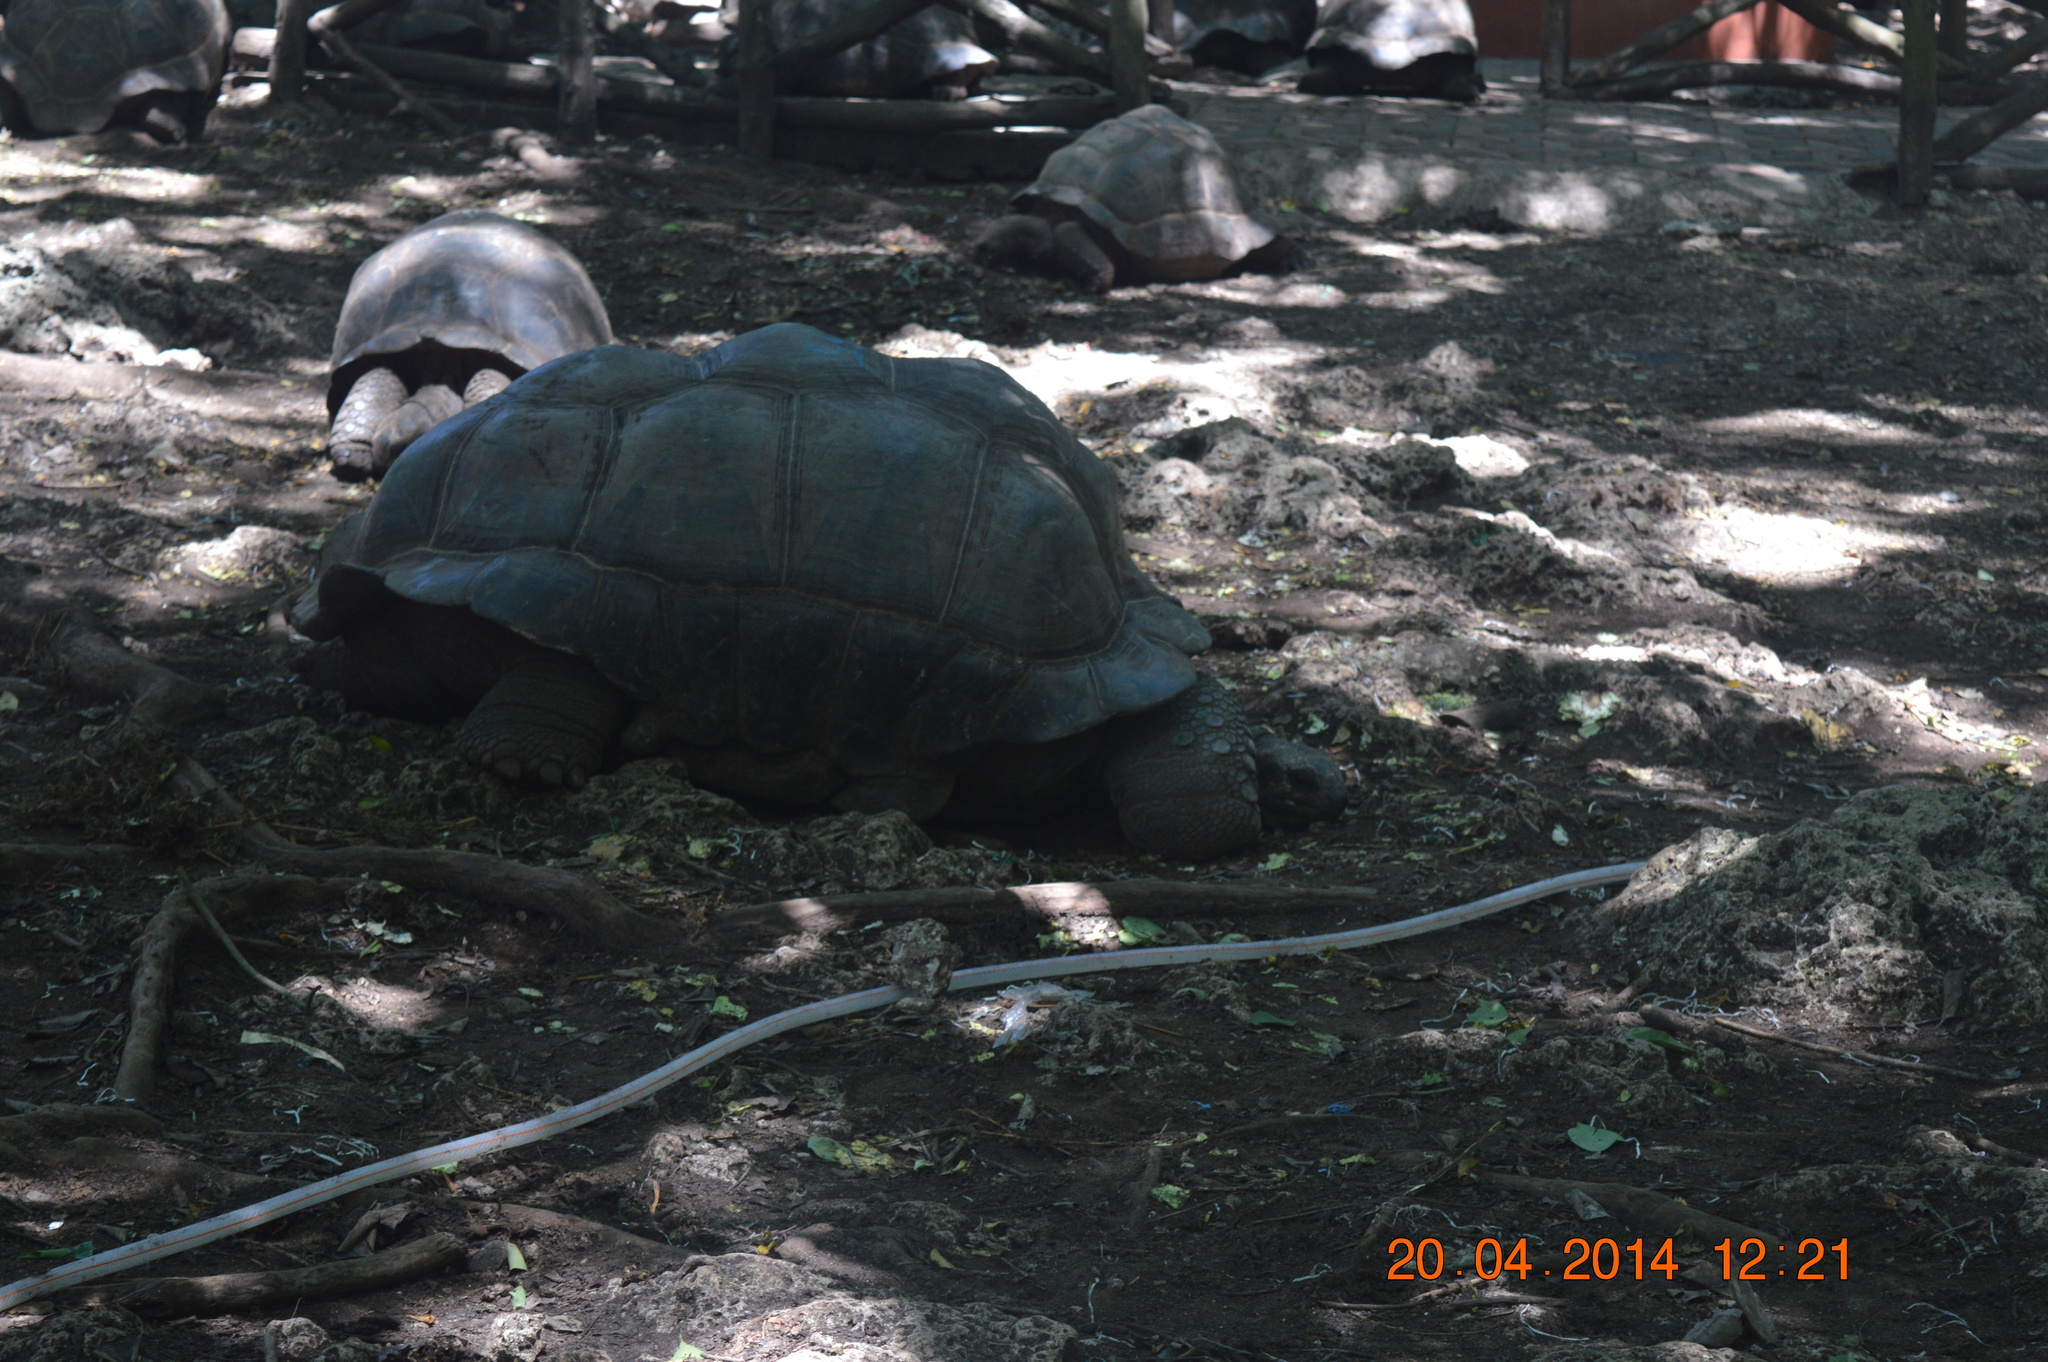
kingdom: Animalia
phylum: Chordata
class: Testudines
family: Testudinidae
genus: Aldabrachelys
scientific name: Aldabrachelys gigantea
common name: Aldabra giant tortoise
